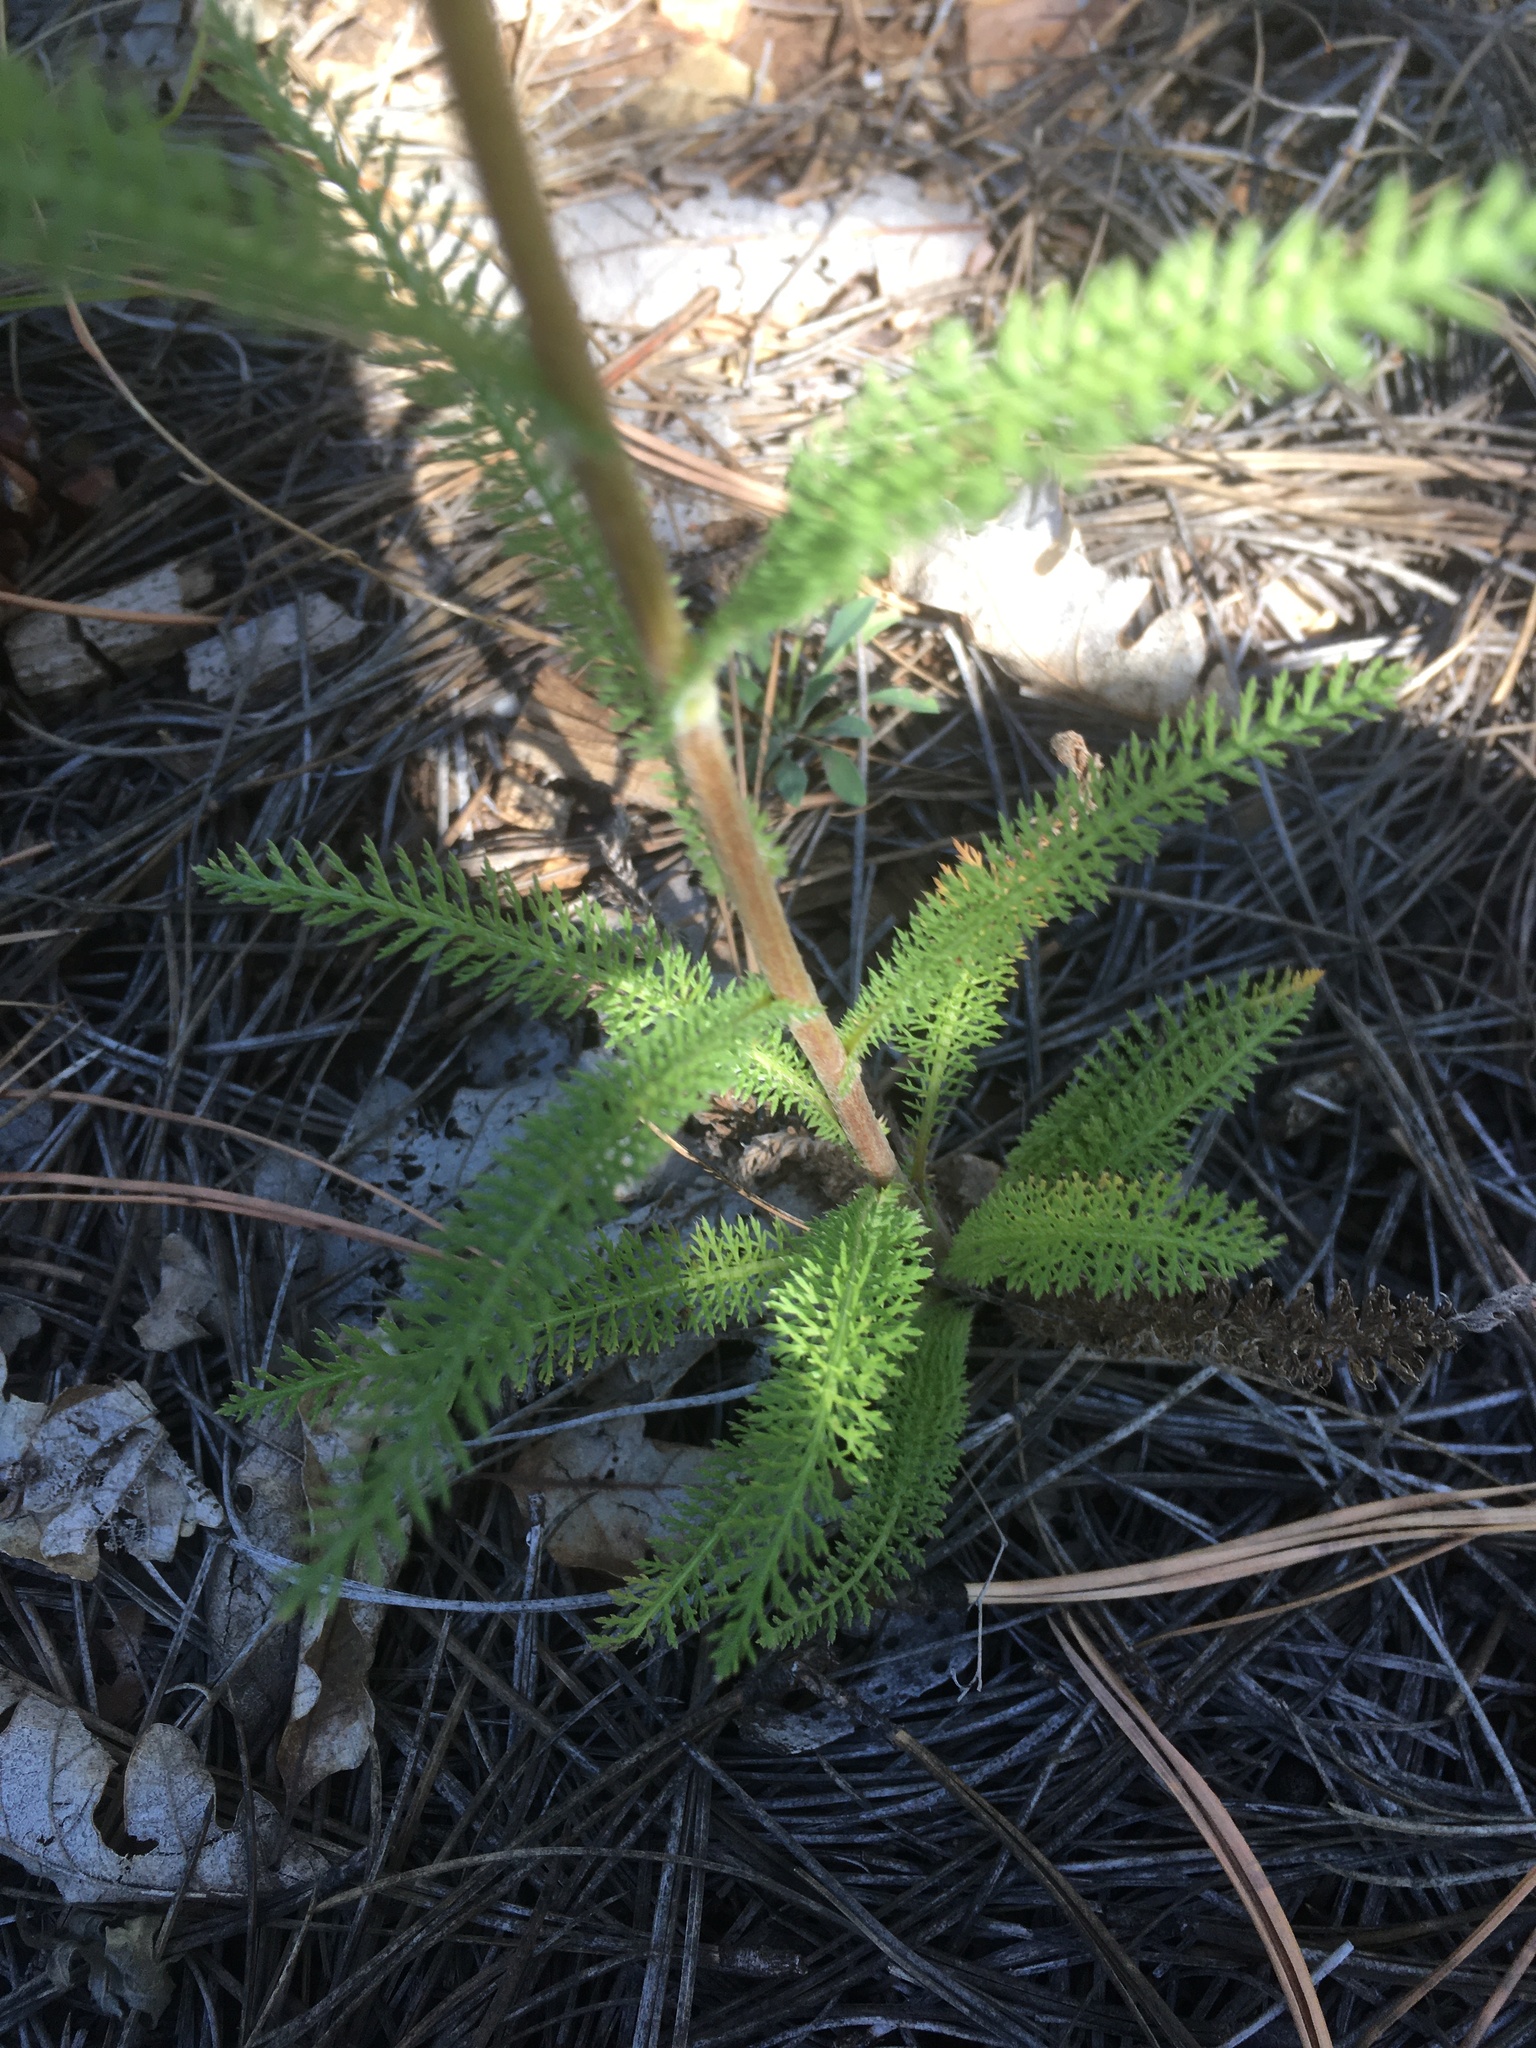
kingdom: Plantae
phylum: Tracheophyta
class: Magnoliopsida
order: Asterales
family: Asteraceae
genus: Achillea
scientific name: Achillea millefolium
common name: Yarrow
